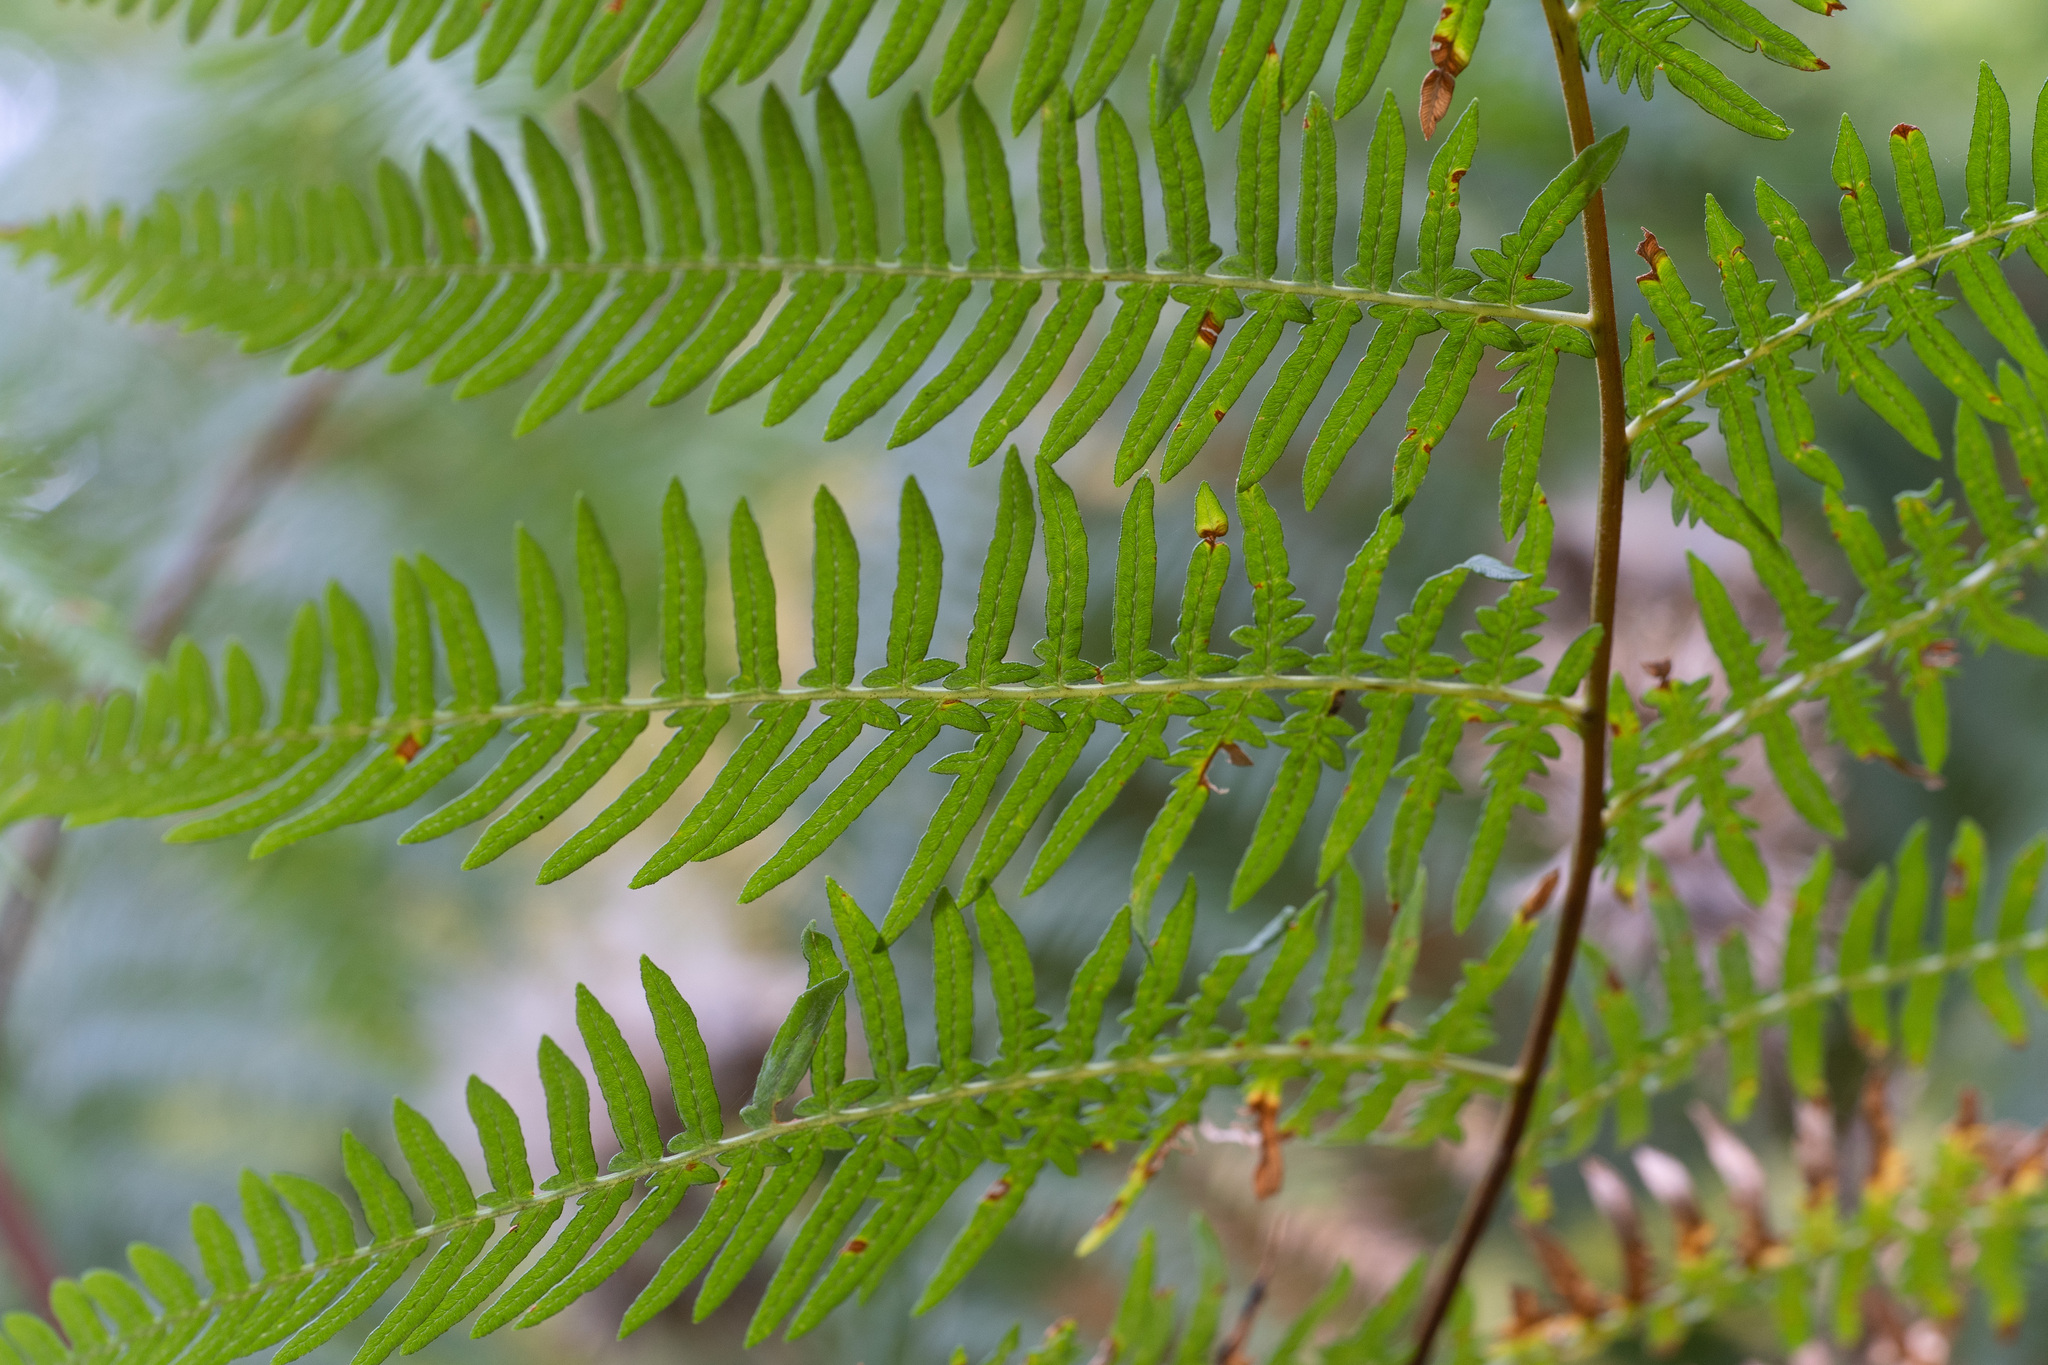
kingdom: Plantae
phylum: Tracheophyta
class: Polypodiopsida
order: Polypodiales
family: Dennstaedtiaceae
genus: Pteridium
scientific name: Pteridium aquilinum
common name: Bracken
